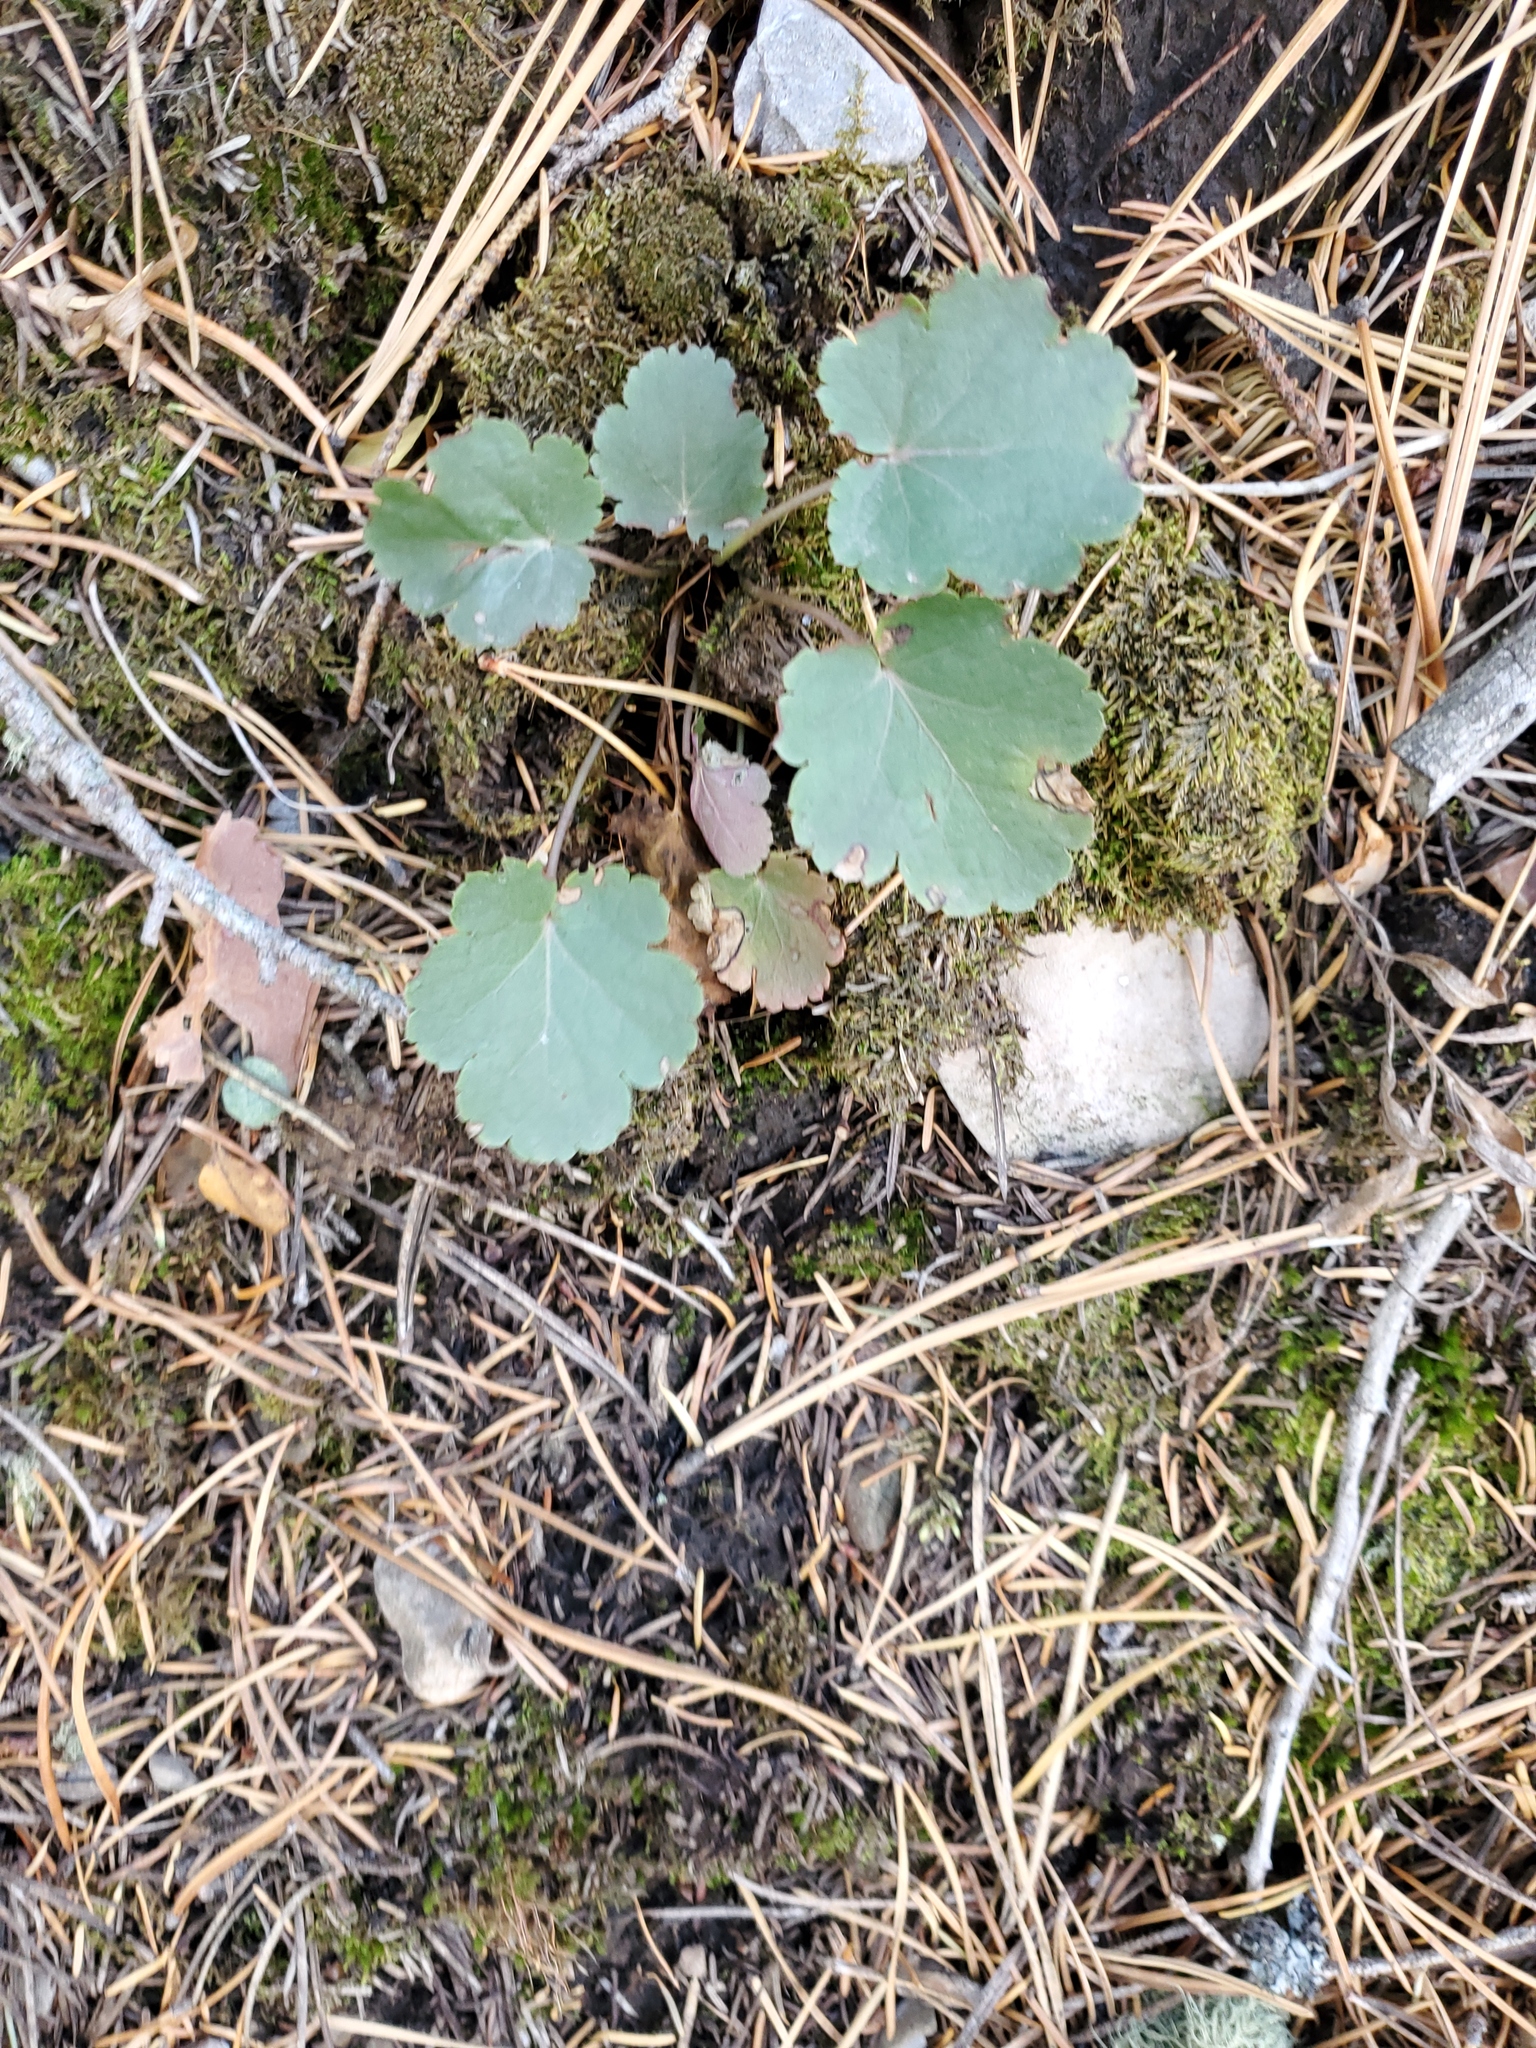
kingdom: Plantae
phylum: Tracheophyta
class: Magnoliopsida
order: Saxifragales
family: Saxifragaceae
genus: Heuchera
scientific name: Heuchera cylindrica
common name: Mat alumroot
